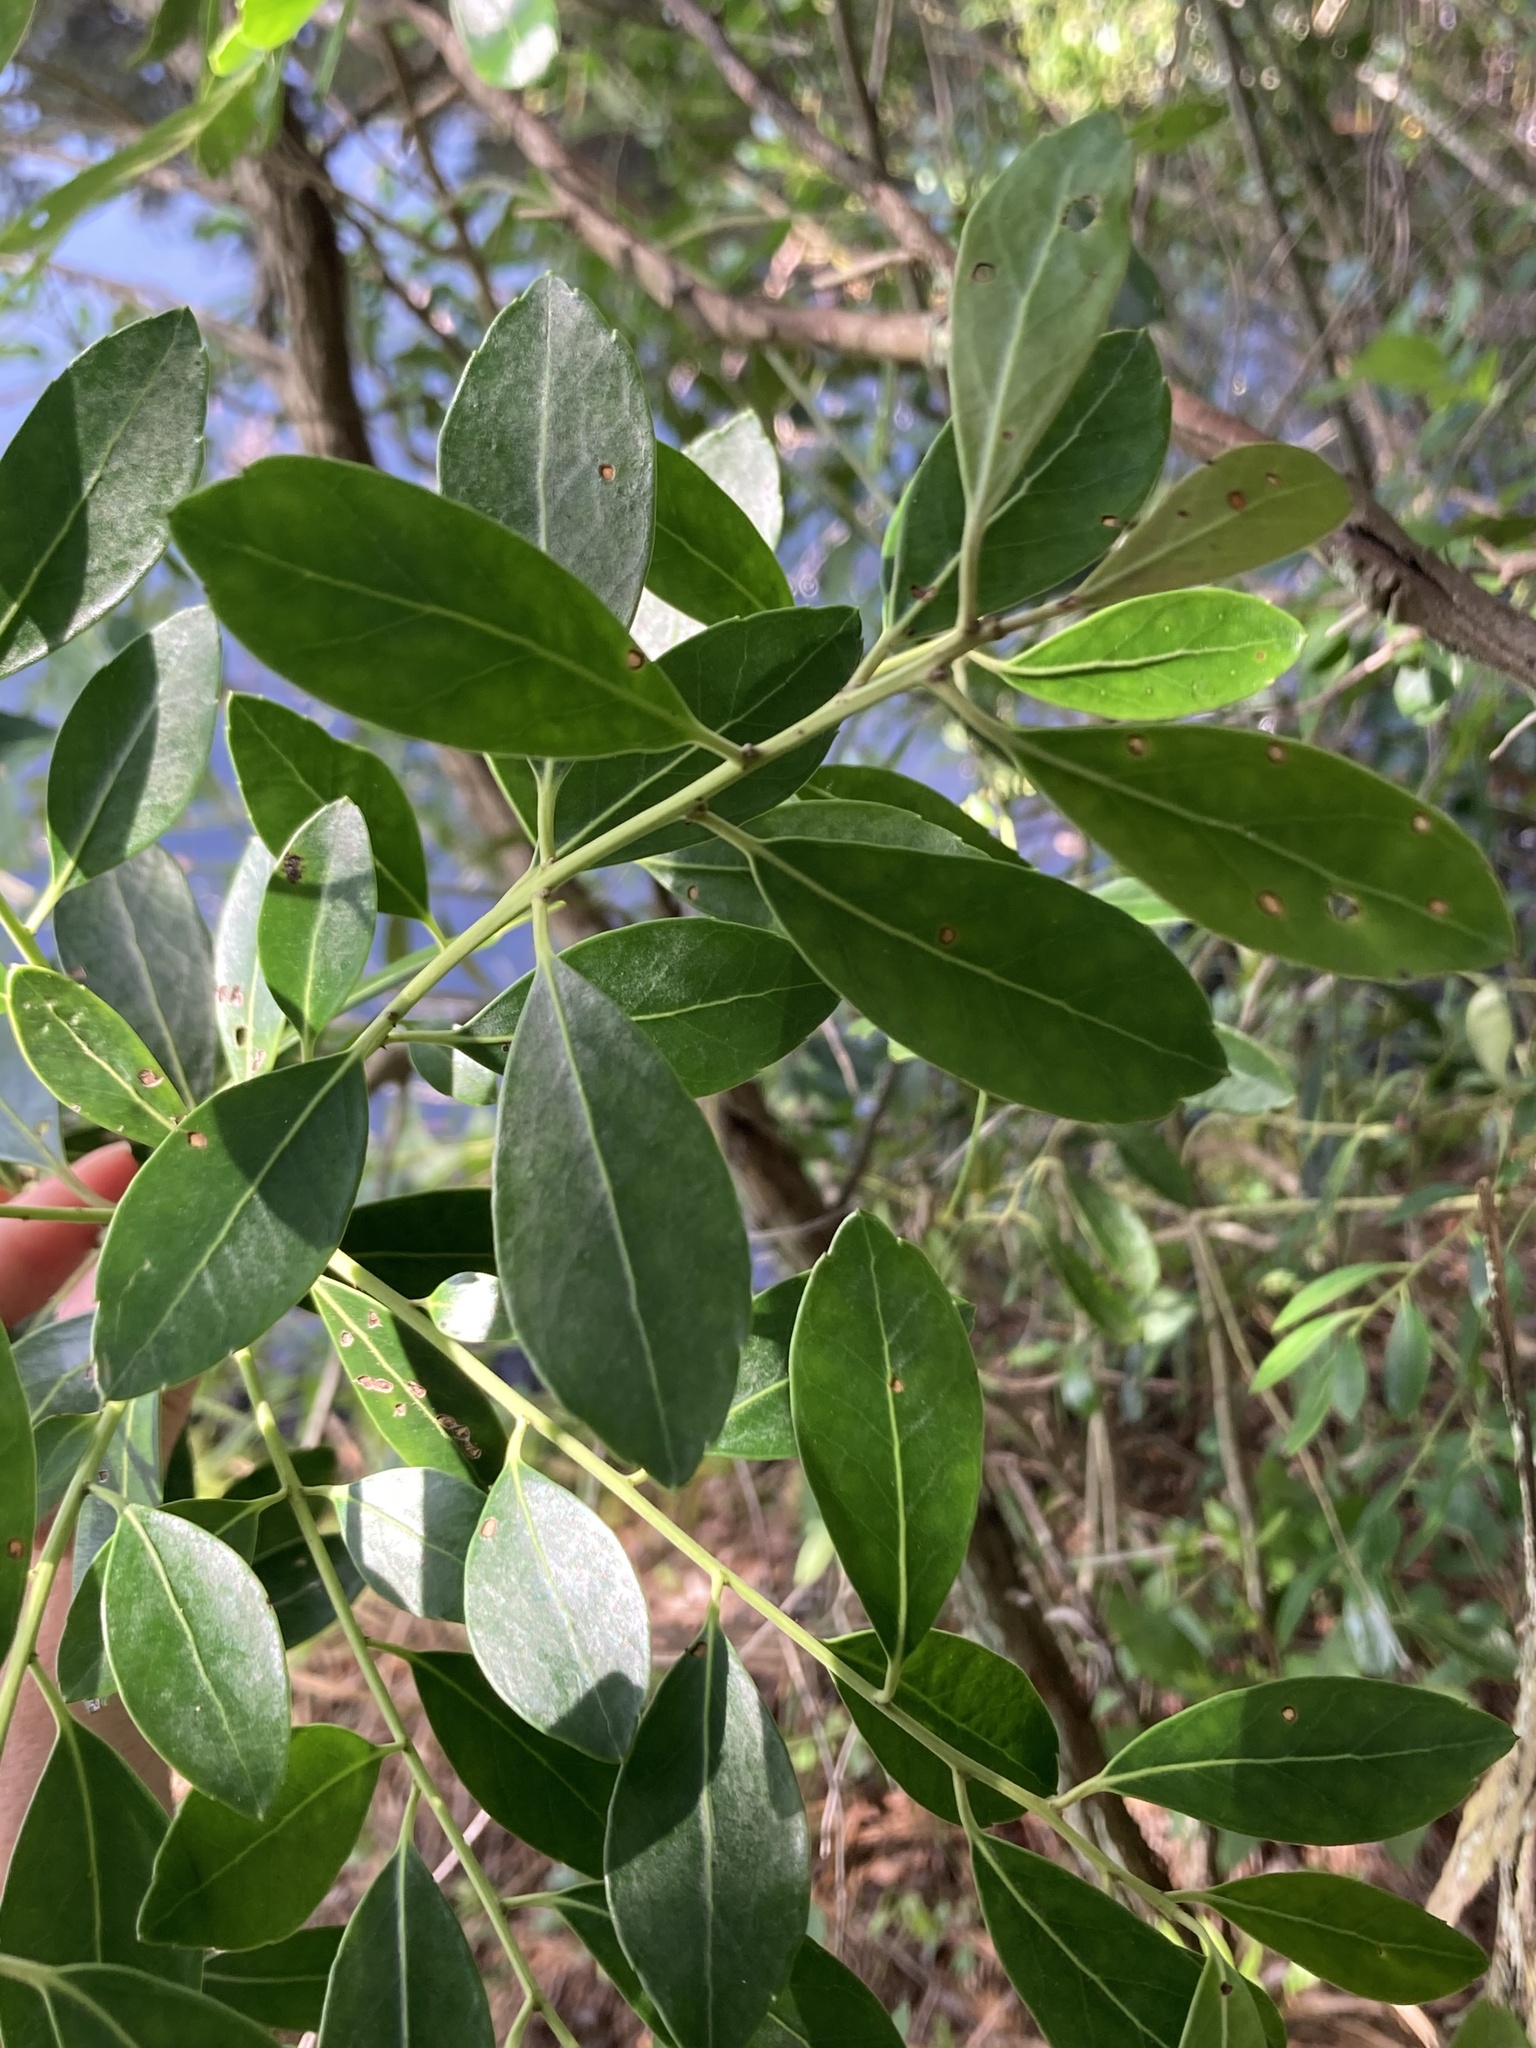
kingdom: Plantae
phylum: Tracheophyta
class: Magnoliopsida
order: Aquifoliales
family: Aquifoliaceae
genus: Ilex
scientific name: Ilex glabra
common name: Bitter gallberry
